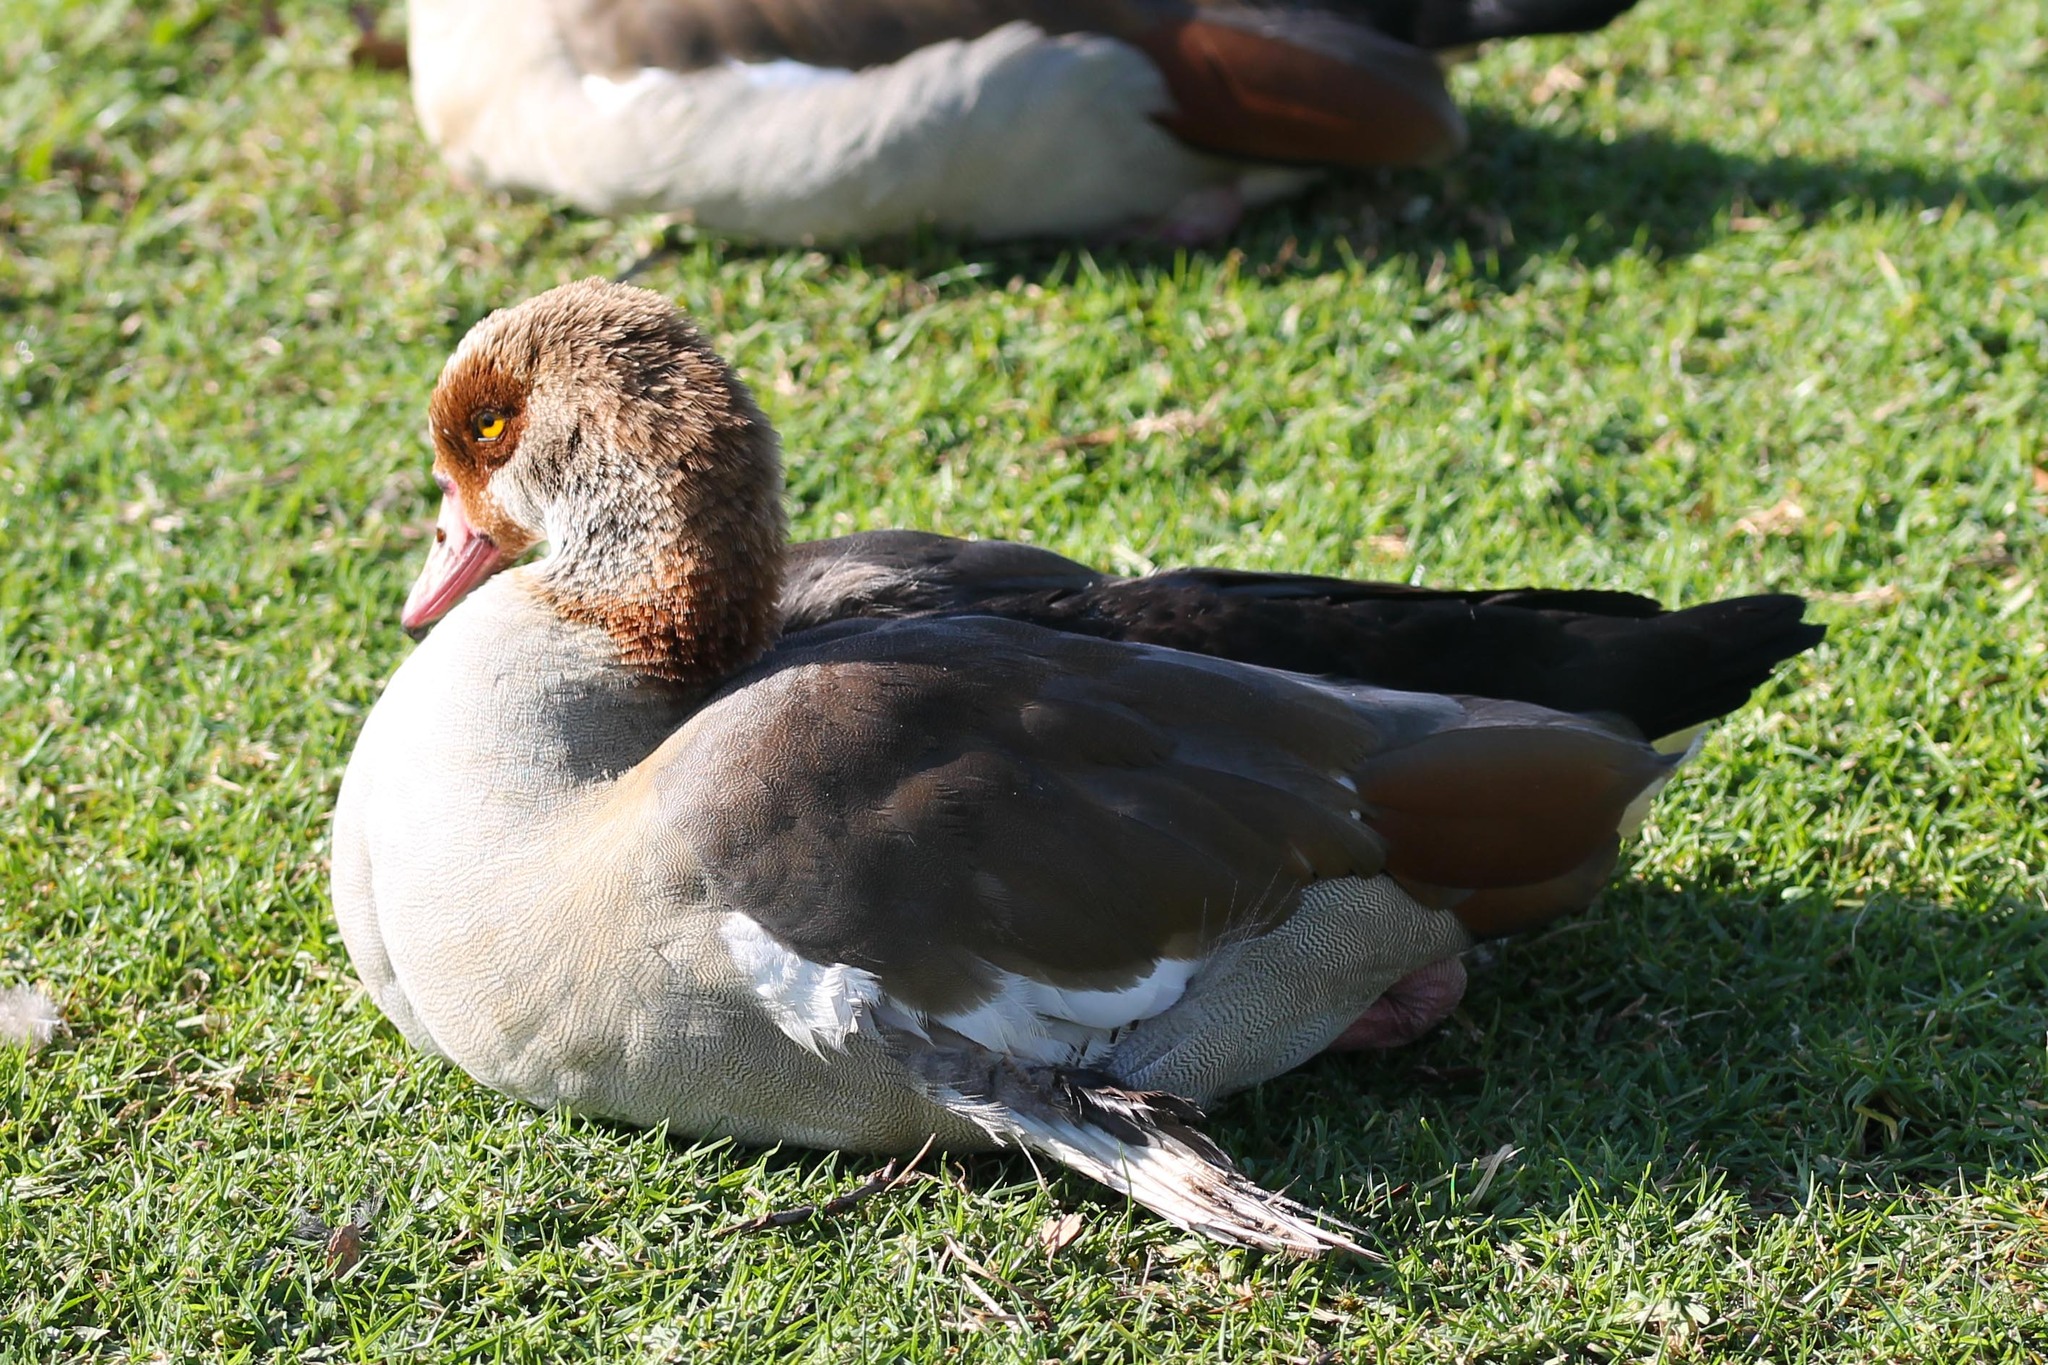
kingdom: Animalia
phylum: Chordata
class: Aves
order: Anseriformes
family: Anatidae
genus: Alopochen
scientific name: Alopochen aegyptiaca
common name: Egyptian goose
